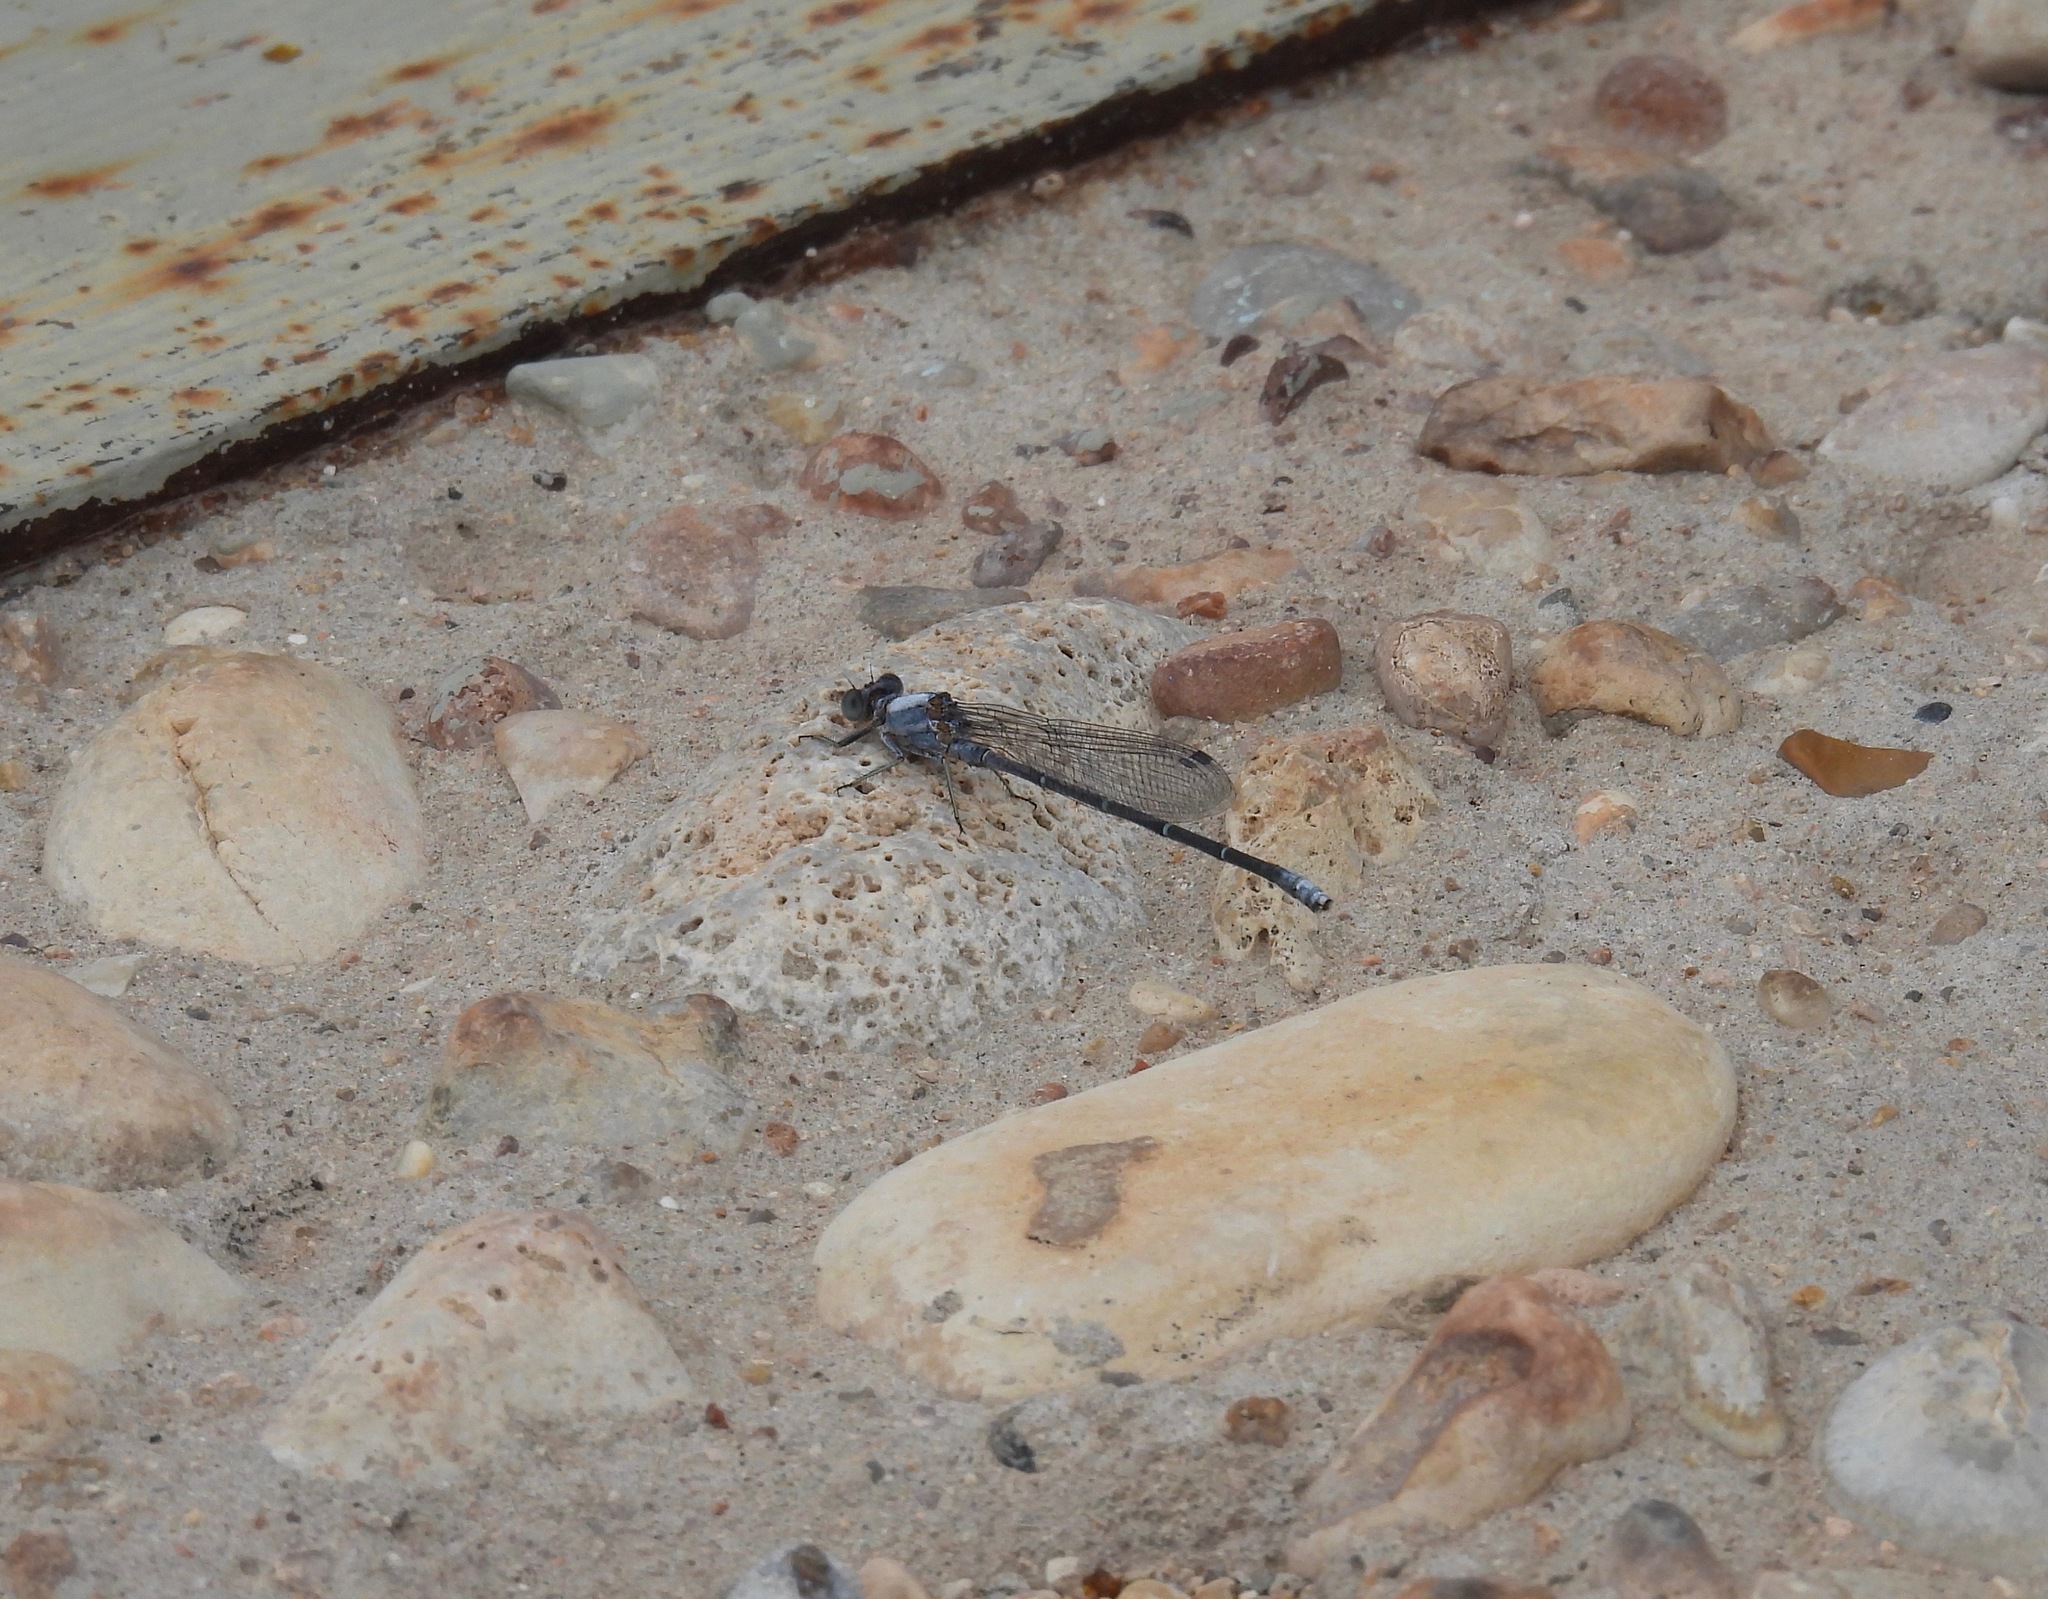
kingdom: Animalia
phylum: Arthropoda
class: Insecta
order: Odonata
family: Coenagrionidae
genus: Argia
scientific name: Argia moesta
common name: Powdered dancer
